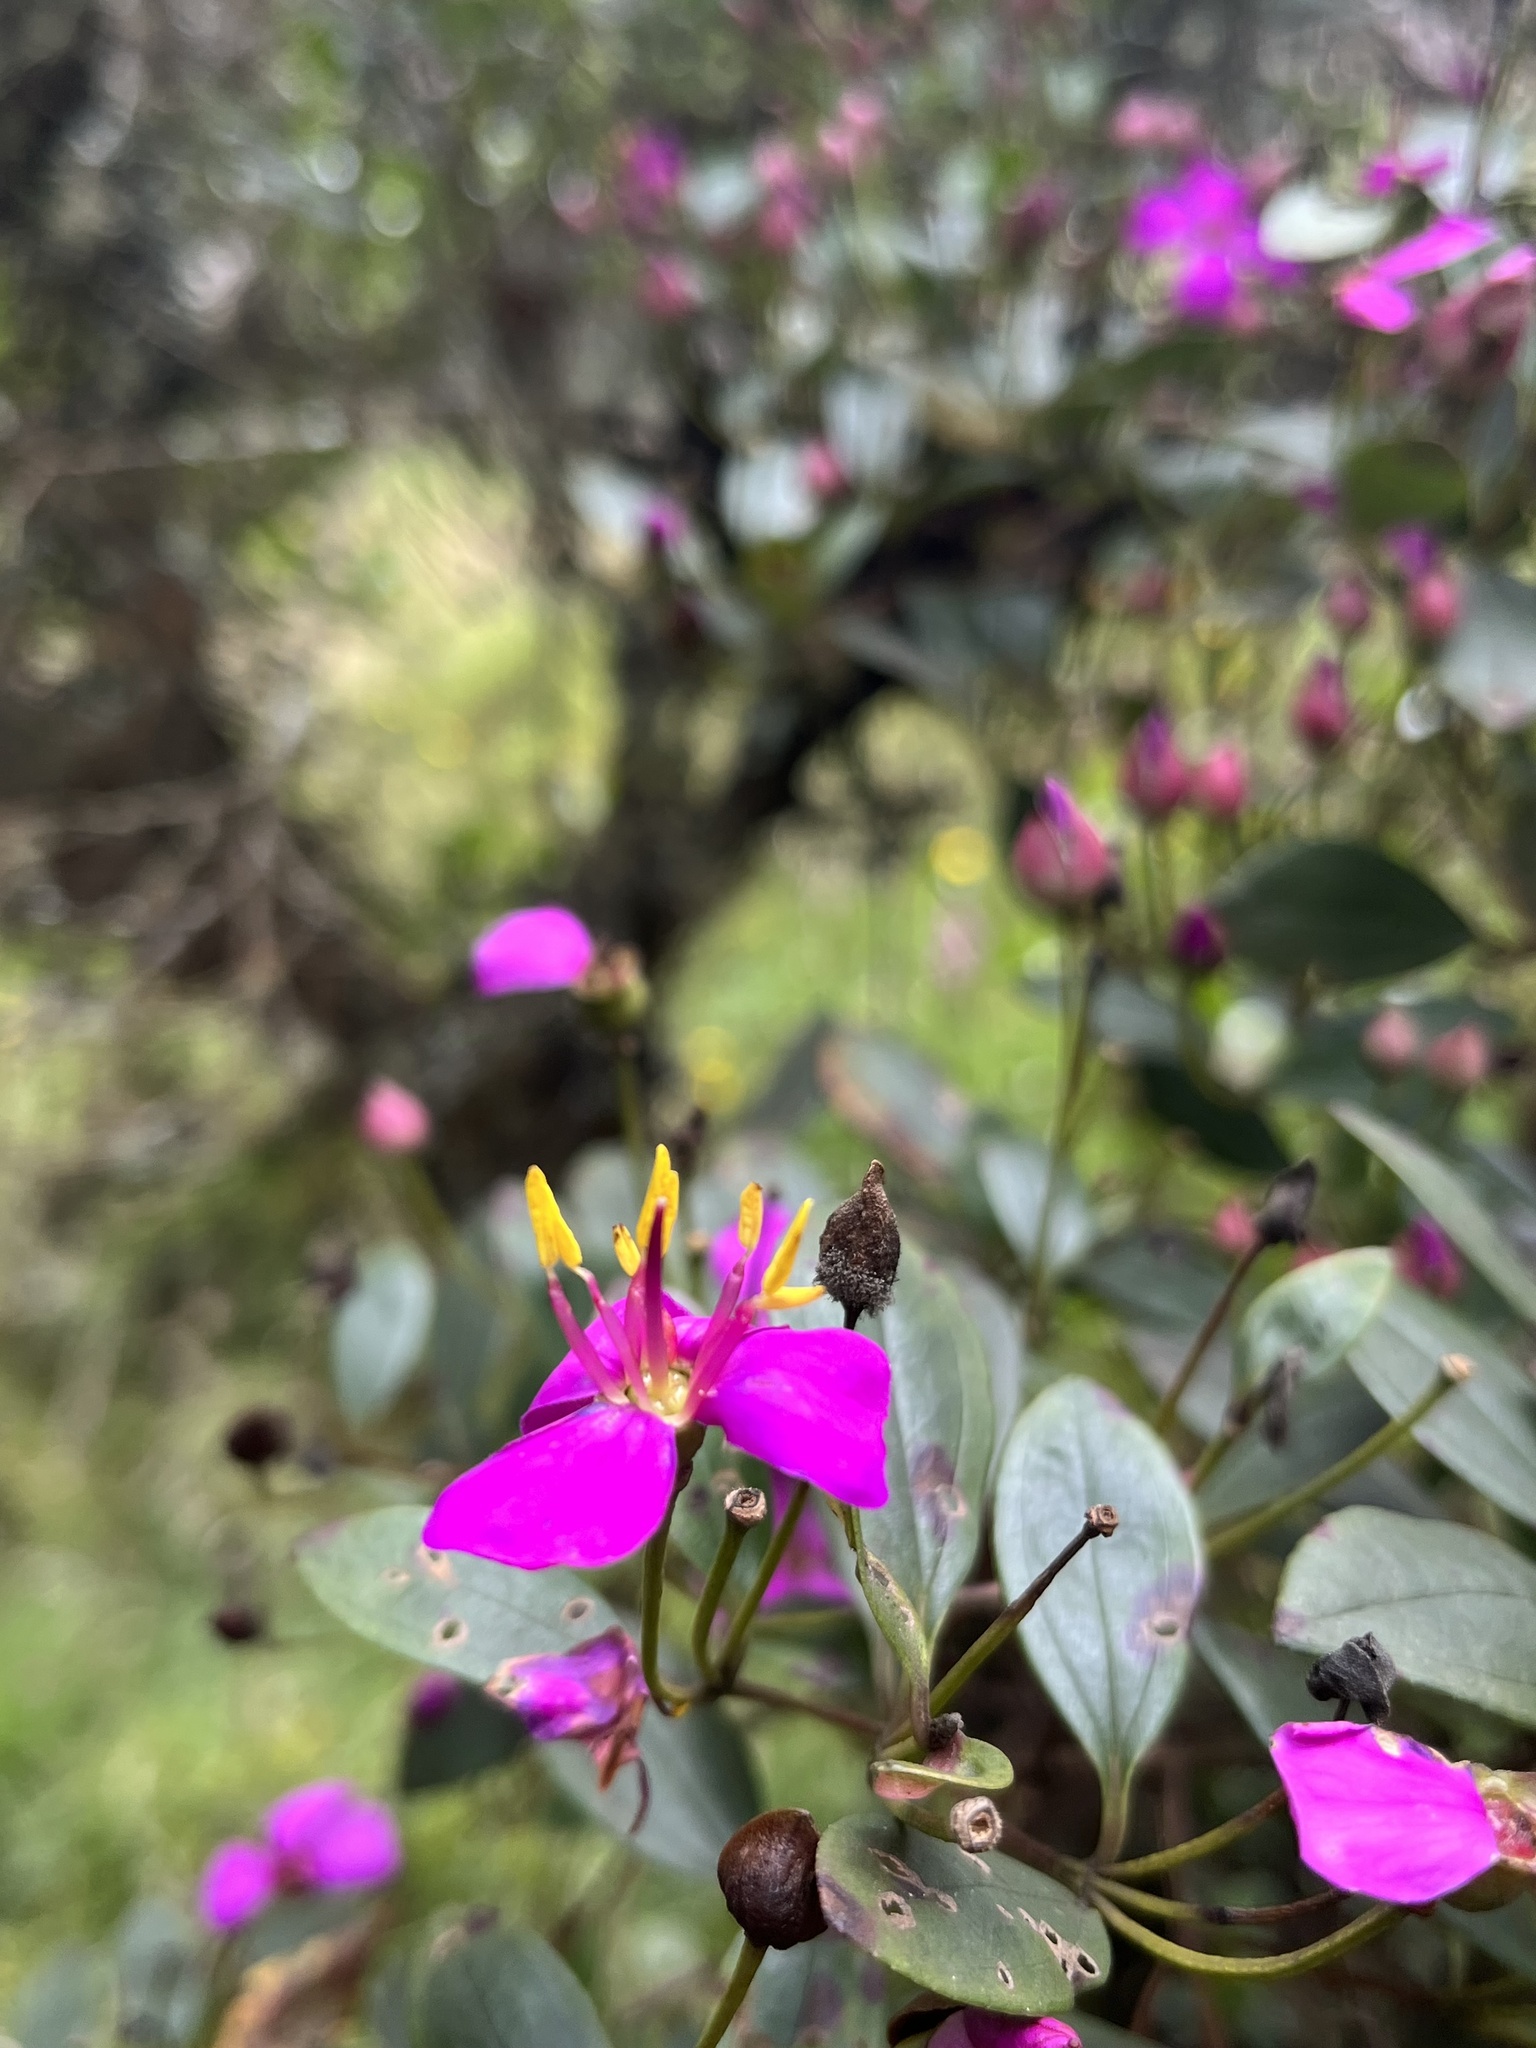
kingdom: Plantae
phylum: Tracheophyta
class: Magnoliopsida
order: Myrtales
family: Melastomataceae
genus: Bucquetia
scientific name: Bucquetia glutinosa
